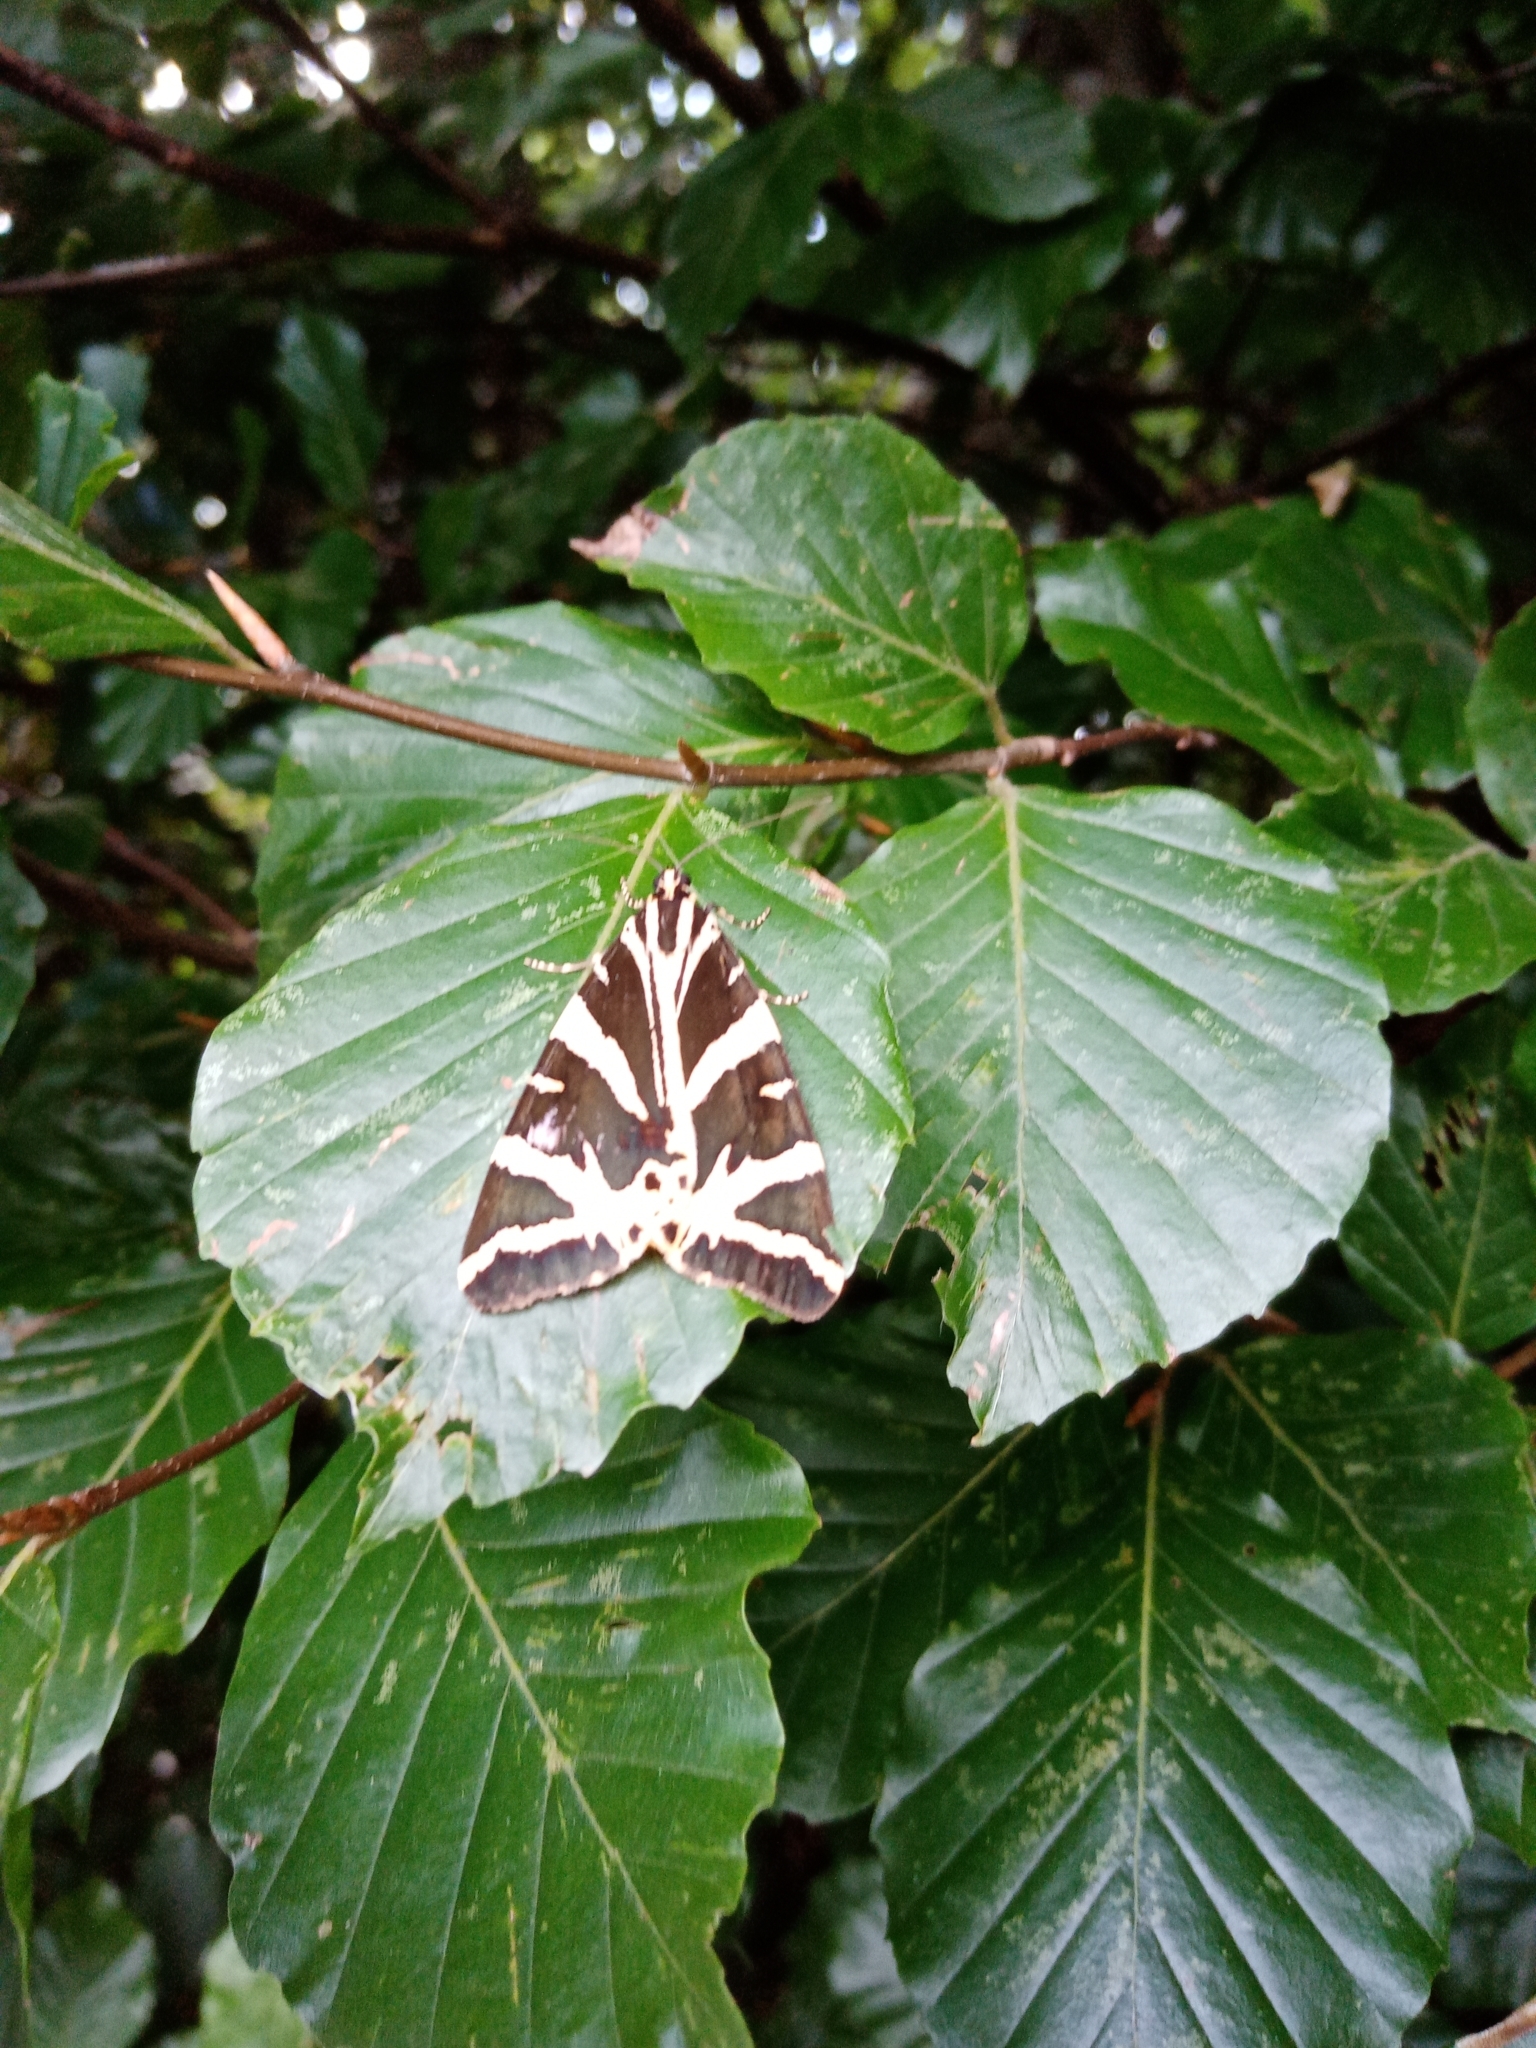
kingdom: Animalia
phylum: Arthropoda
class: Insecta
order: Lepidoptera
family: Erebidae
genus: Euplagia
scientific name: Euplagia quadripunctaria
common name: Jersey tiger
